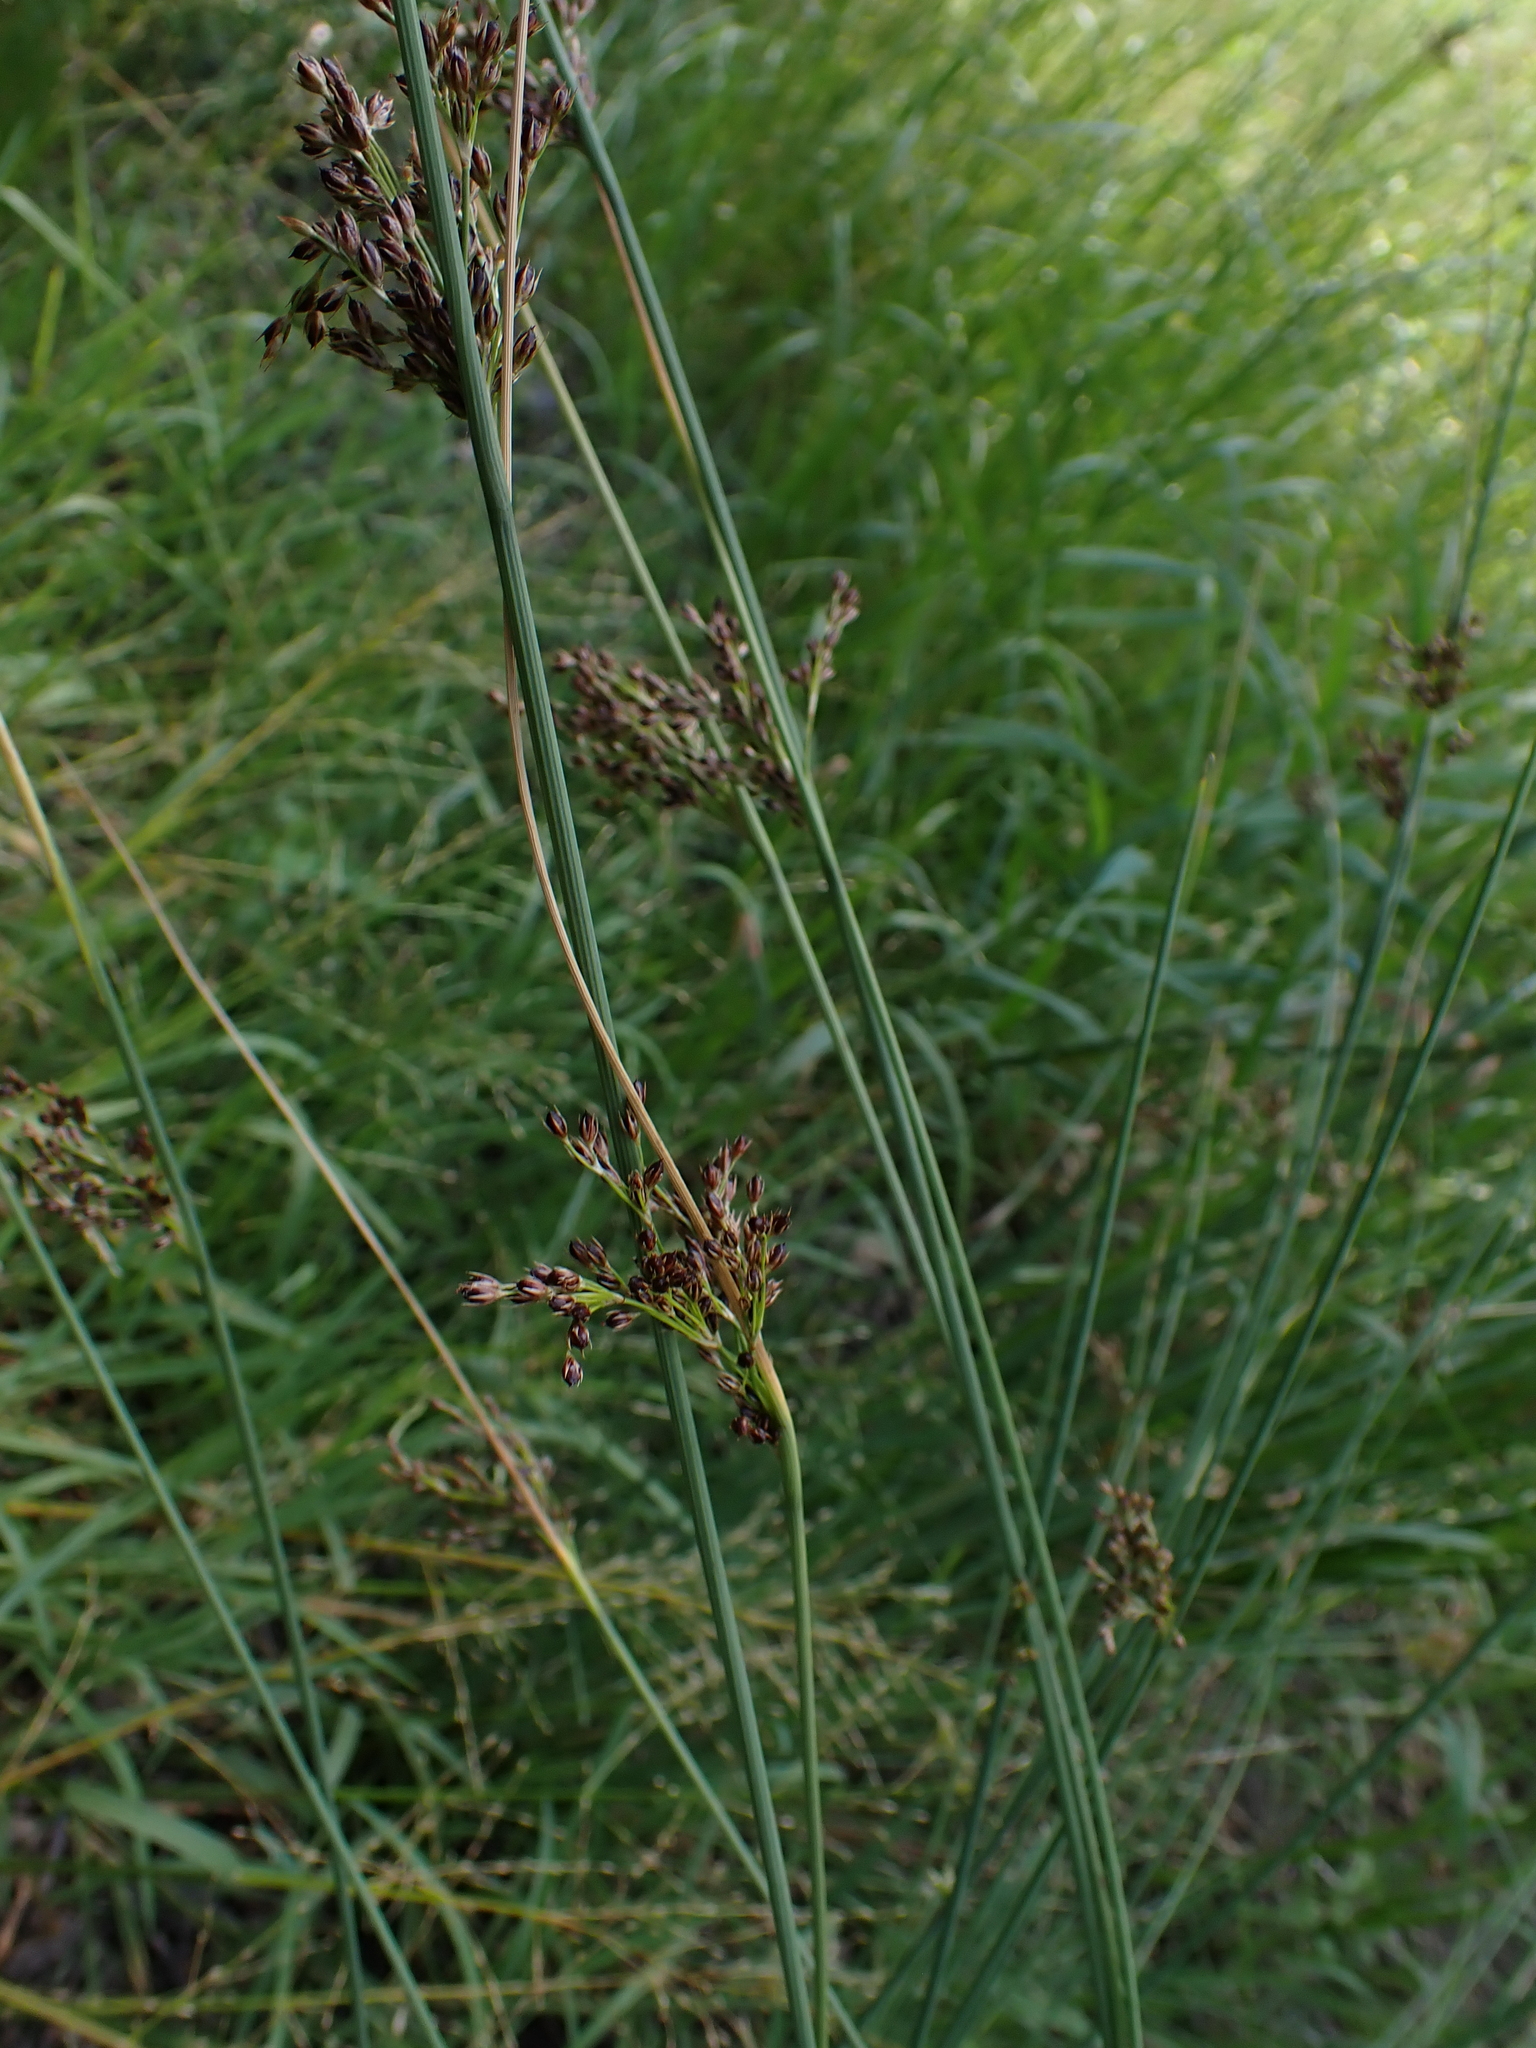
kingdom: Plantae
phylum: Tracheophyta
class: Liliopsida
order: Poales
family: Juncaceae
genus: Juncus
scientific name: Juncus inflexus
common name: Hard rush
